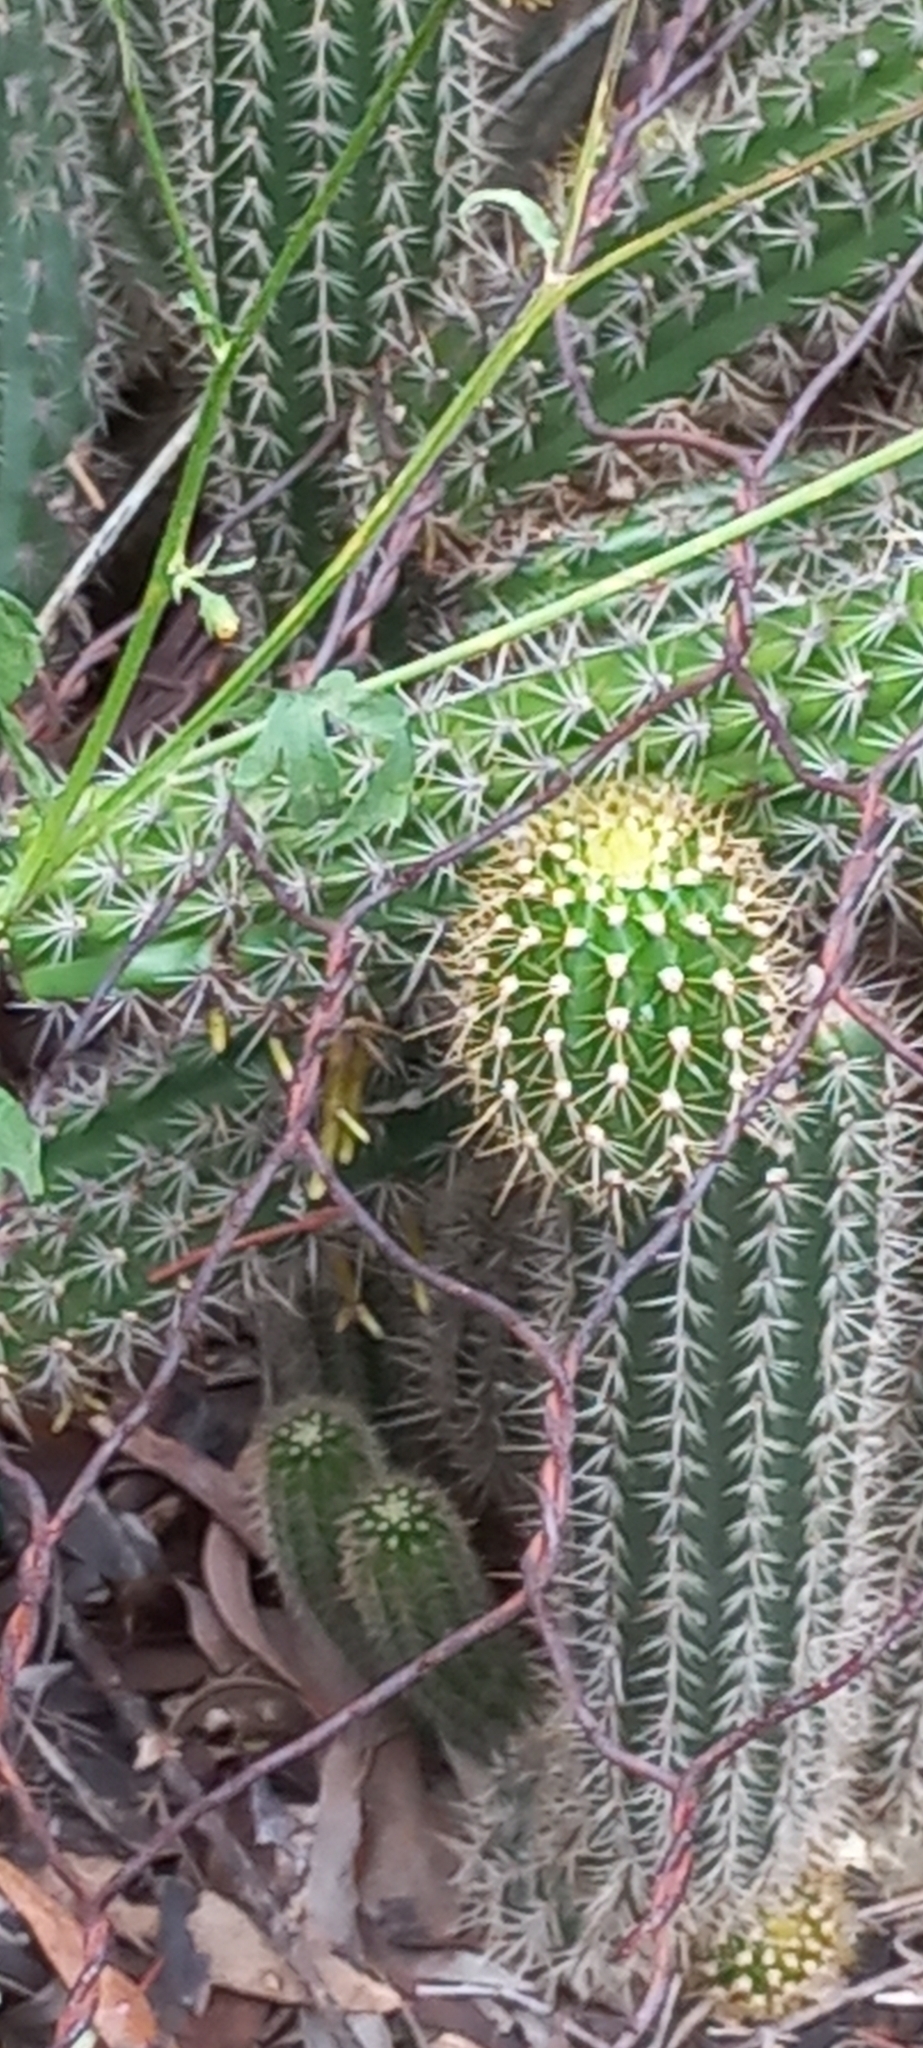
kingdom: Plantae
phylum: Tracheophyta
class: Magnoliopsida
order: Caryophyllales
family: Cactaceae
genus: Soehrensia
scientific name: Soehrensia spachiana
